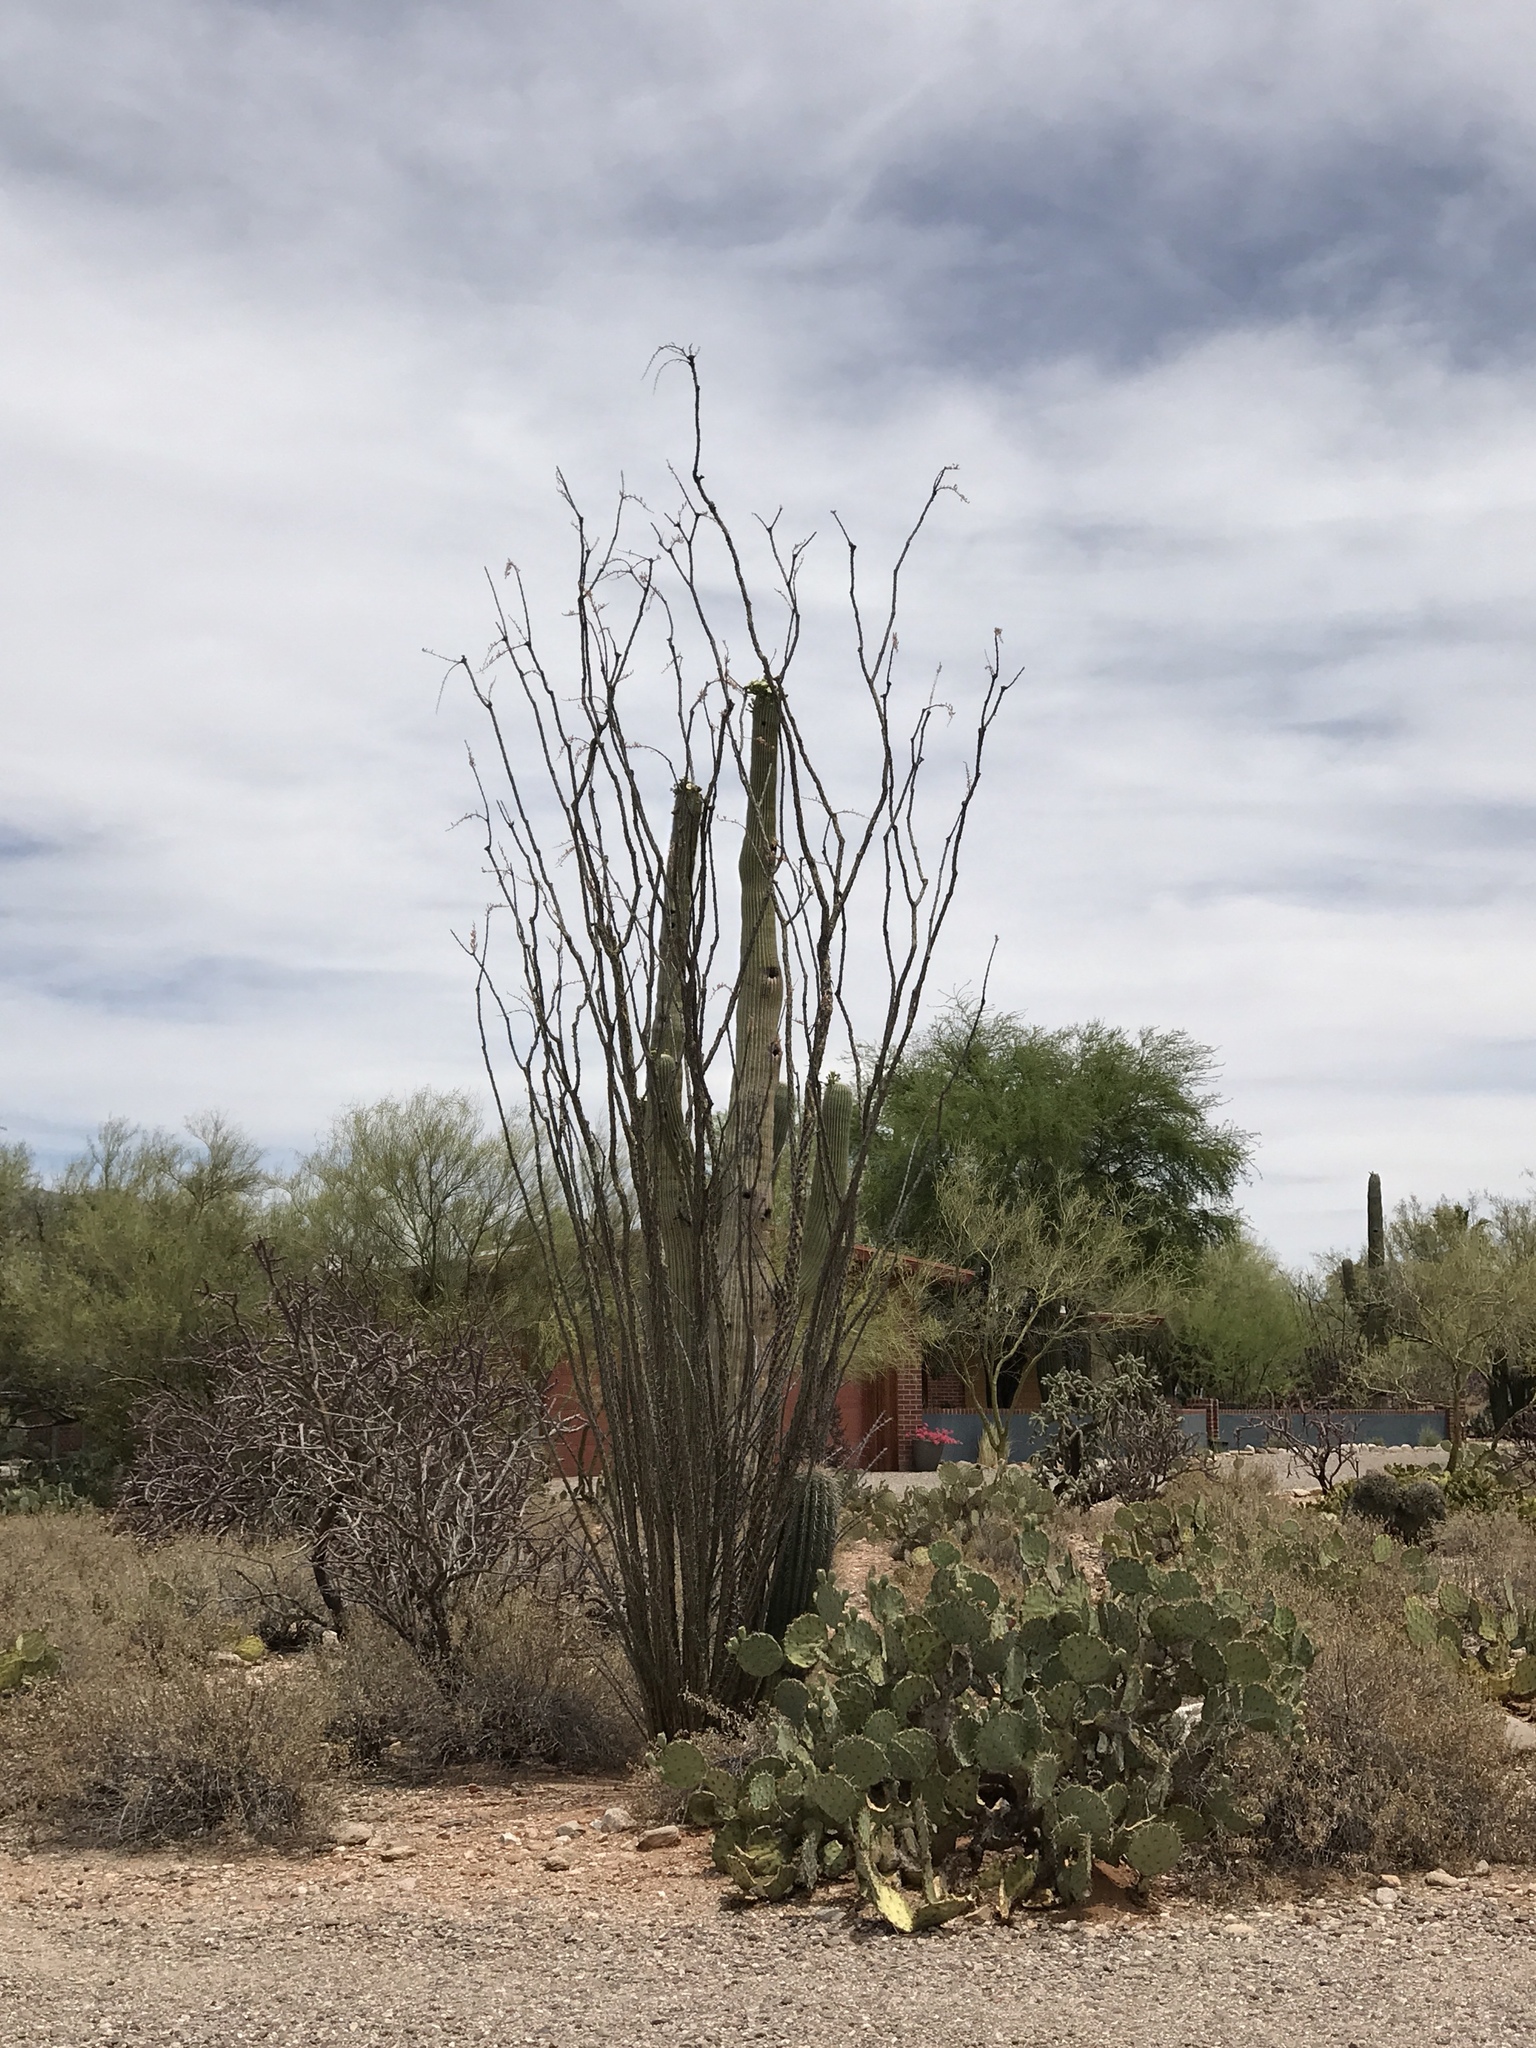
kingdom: Plantae
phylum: Tracheophyta
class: Magnoliopsida
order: Ericales
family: Fouquieriaceae
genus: Fouquieria
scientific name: Fouquieria splendens
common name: Vine-cactus
